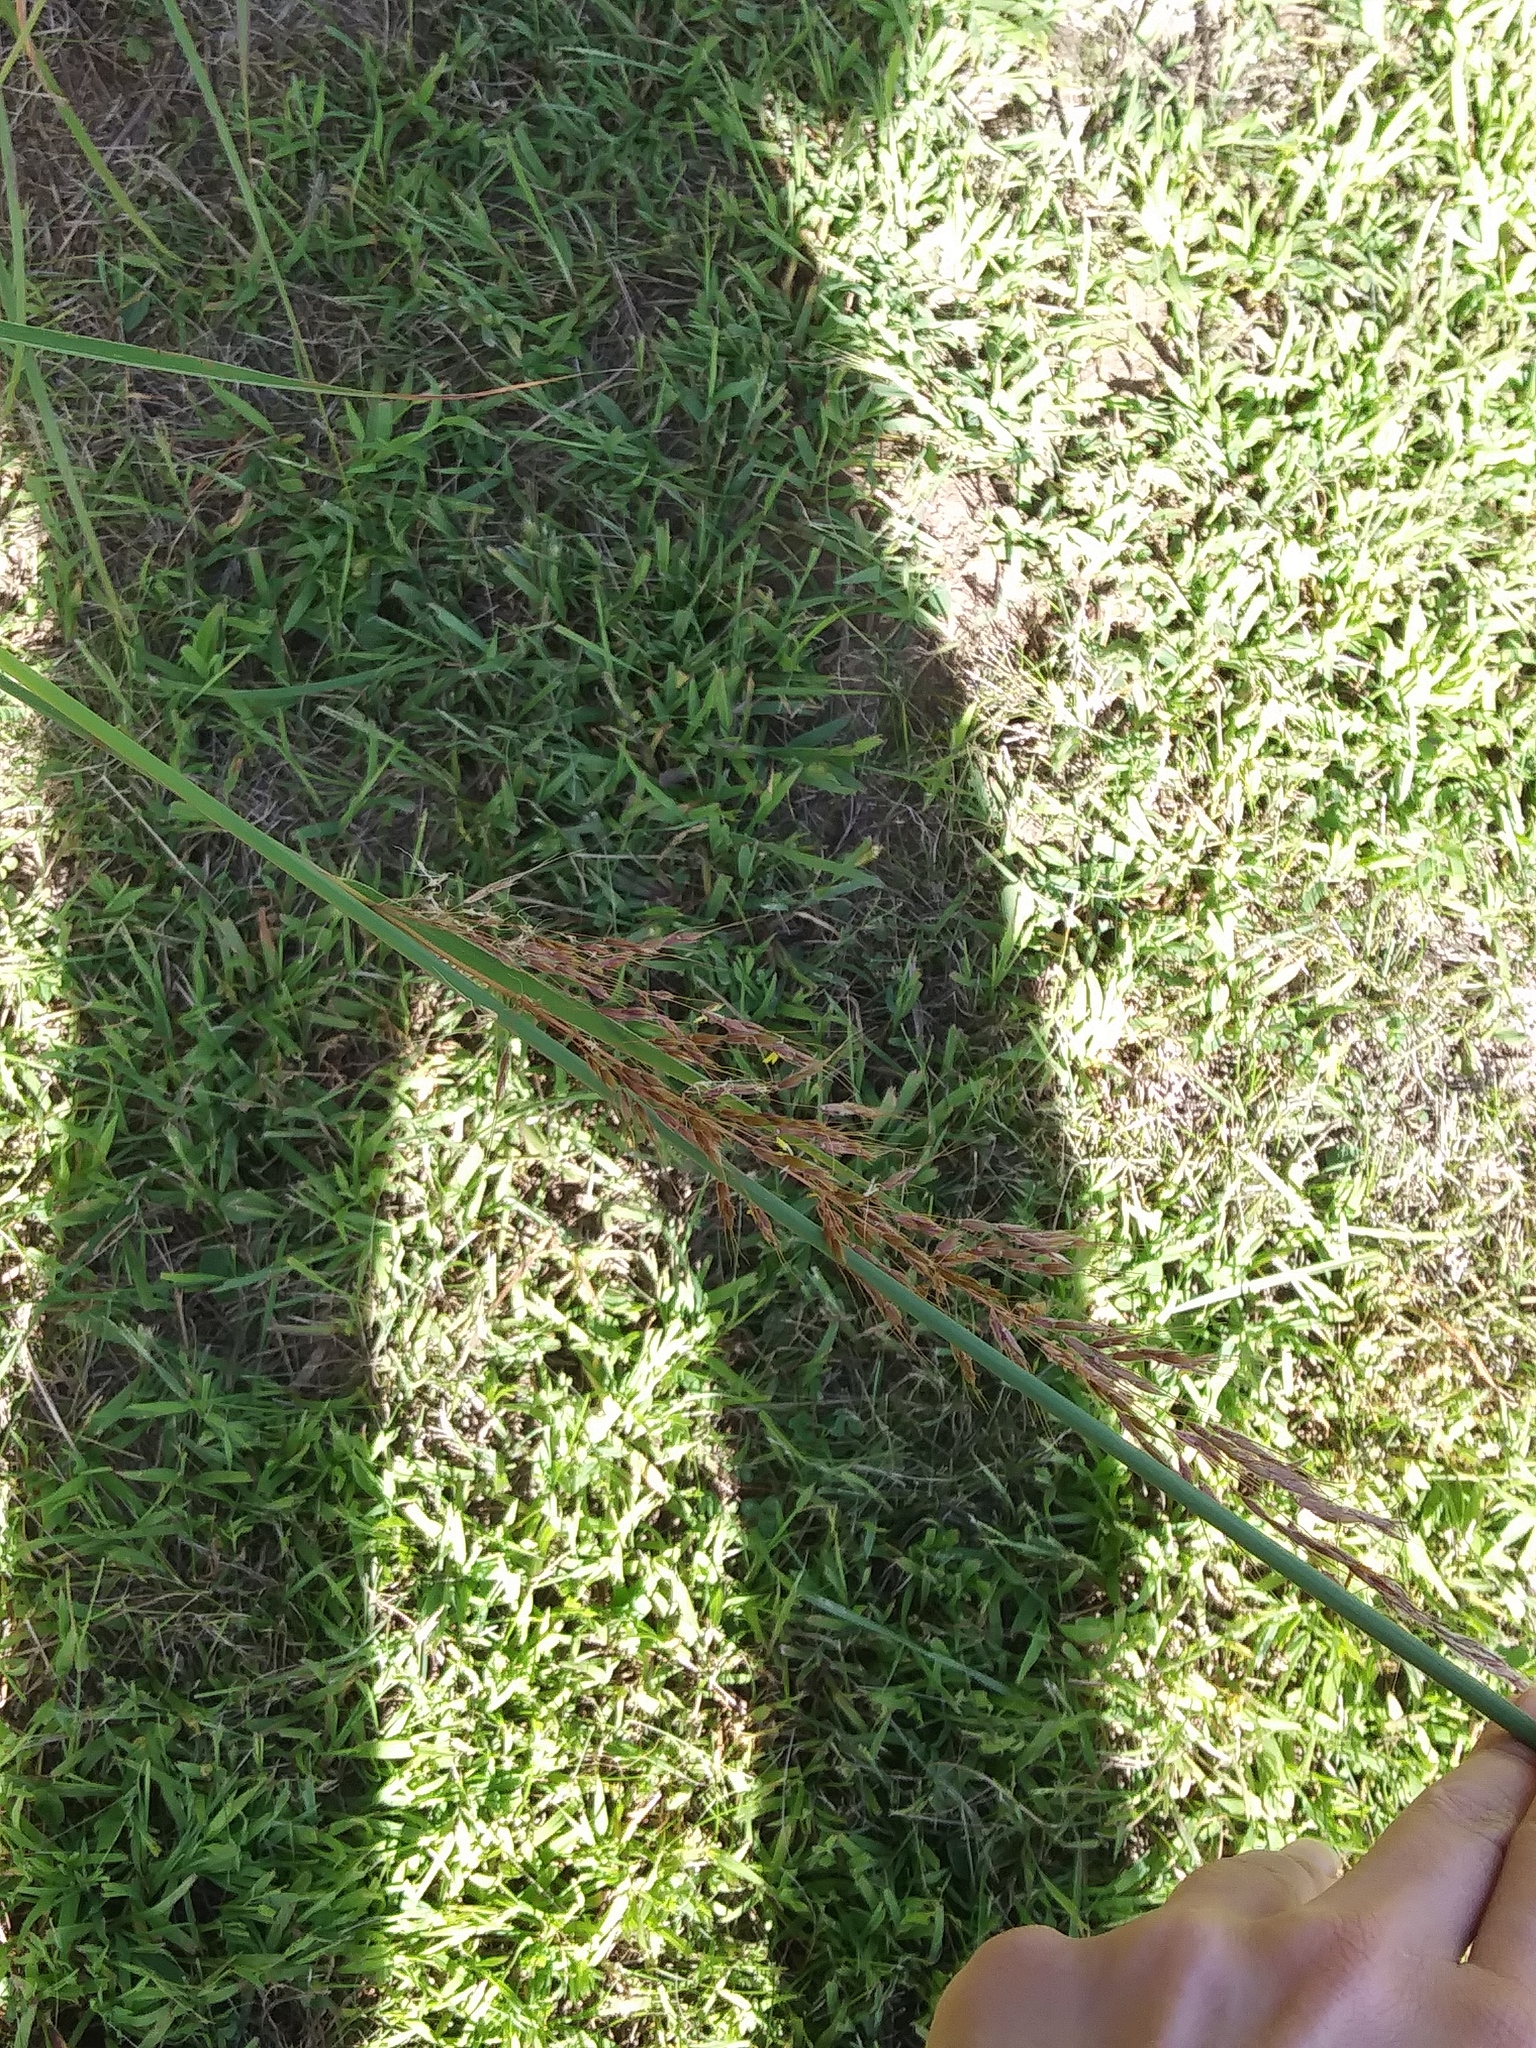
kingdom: Plantae
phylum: Tracheophyta
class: Liliopsida
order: Poales
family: Poaceae
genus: Sorghastrum
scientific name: Sorghastrum nutans
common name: Indian grass
